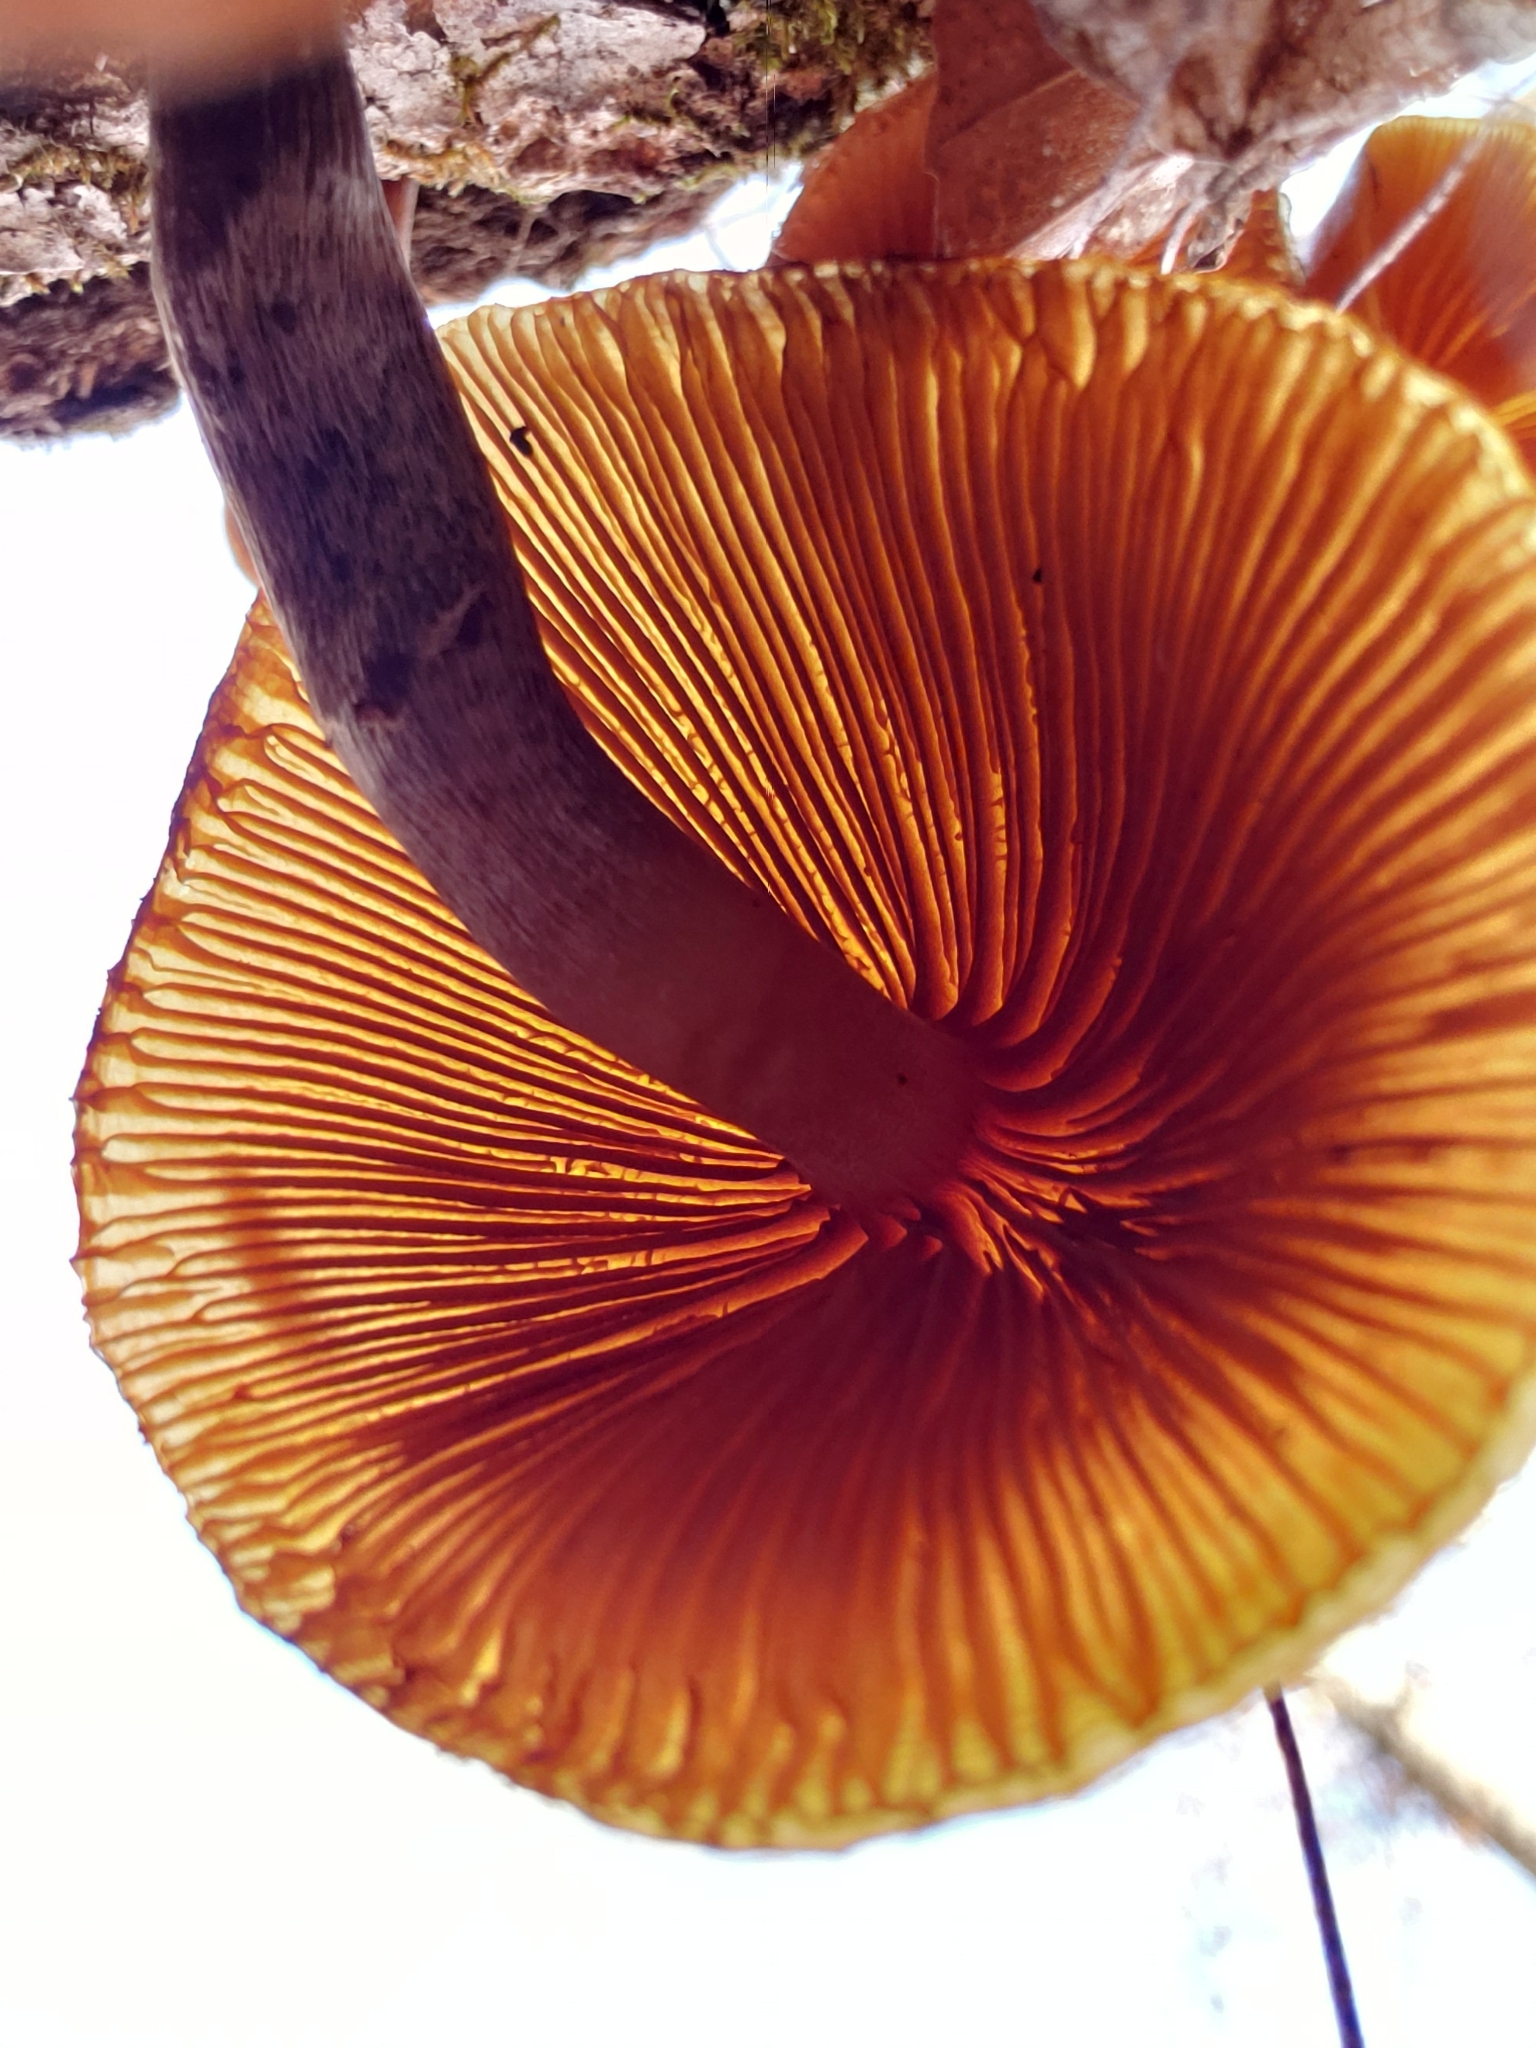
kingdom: Fungi
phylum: Basidiomycota
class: Agaricomycetes
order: Agaricales
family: Hymenogastraceae
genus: Galerina
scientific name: Galerina marginata
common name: Funeral bell
